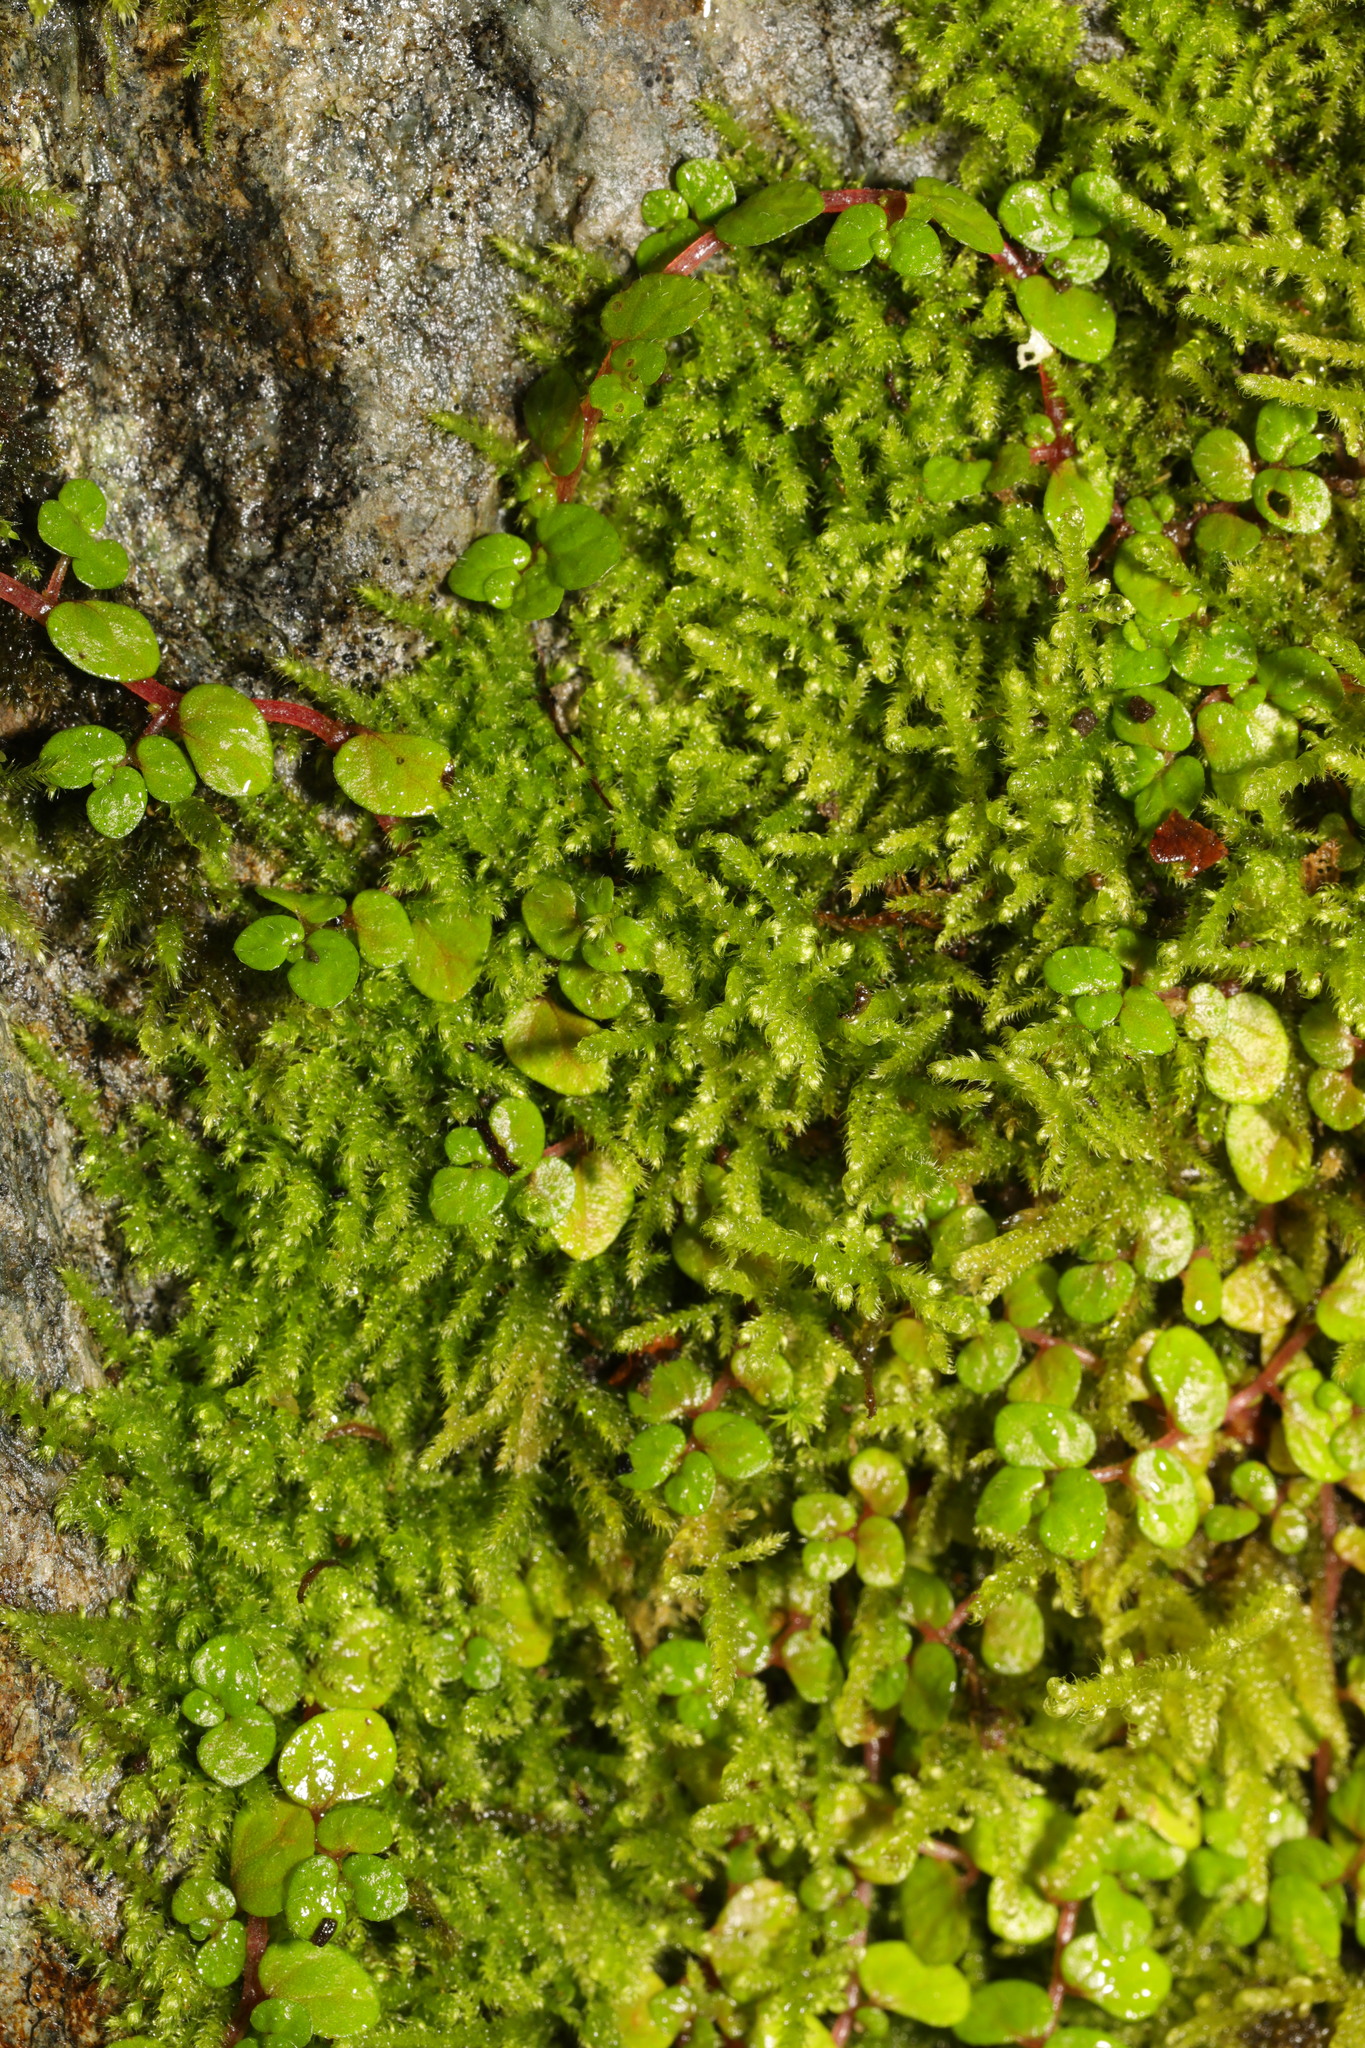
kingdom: Plantae
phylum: Tracheophyta
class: Magnoliopsida
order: Rosales
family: Urticaceae
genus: Soleirolia
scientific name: Soleirolia soleirolii
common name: Mind-your-own-business
